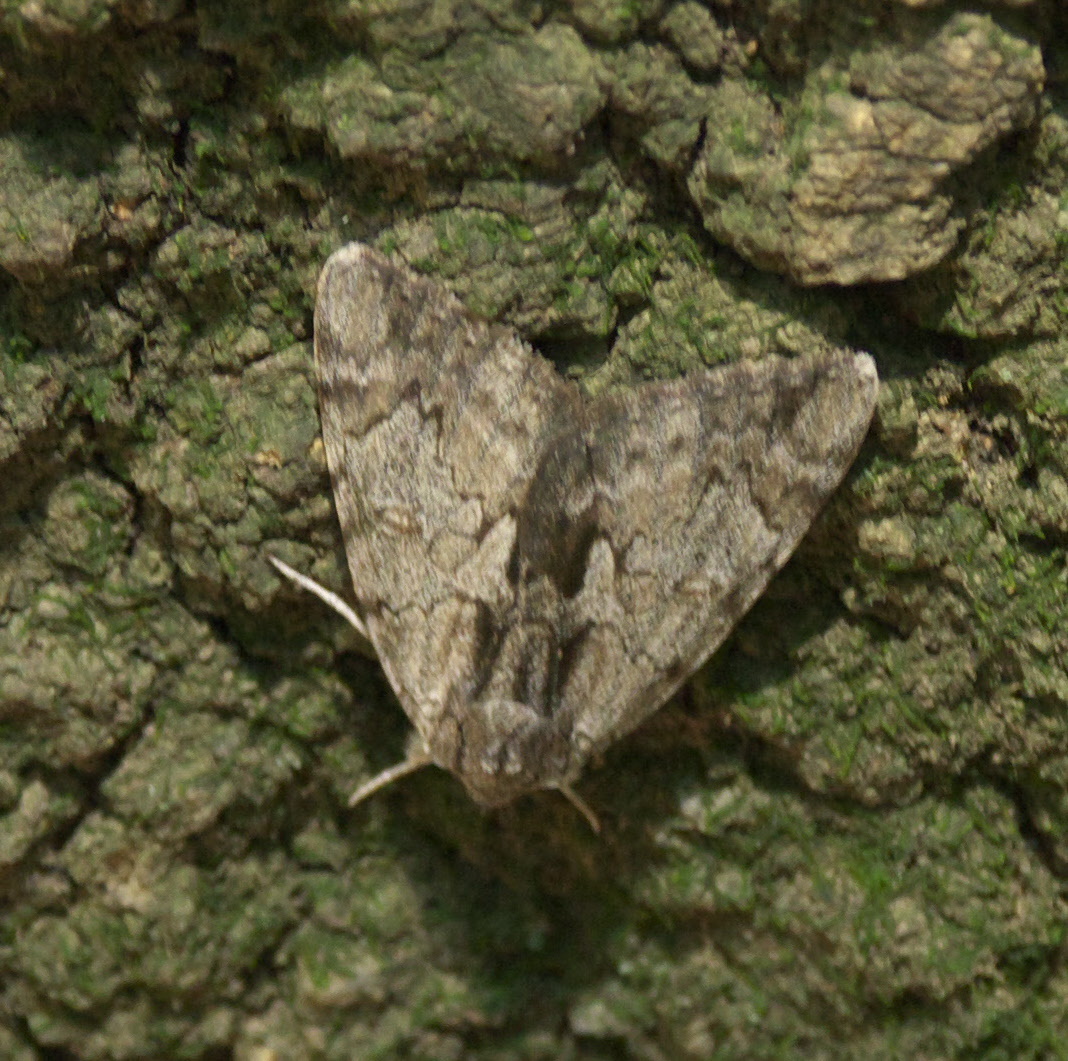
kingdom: Animalia
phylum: Arthropoda
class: Insecta
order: Lepidoptera
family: Erebidae
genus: Catocala
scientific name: Catocala insolabilis
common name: Inconsolable underwing
